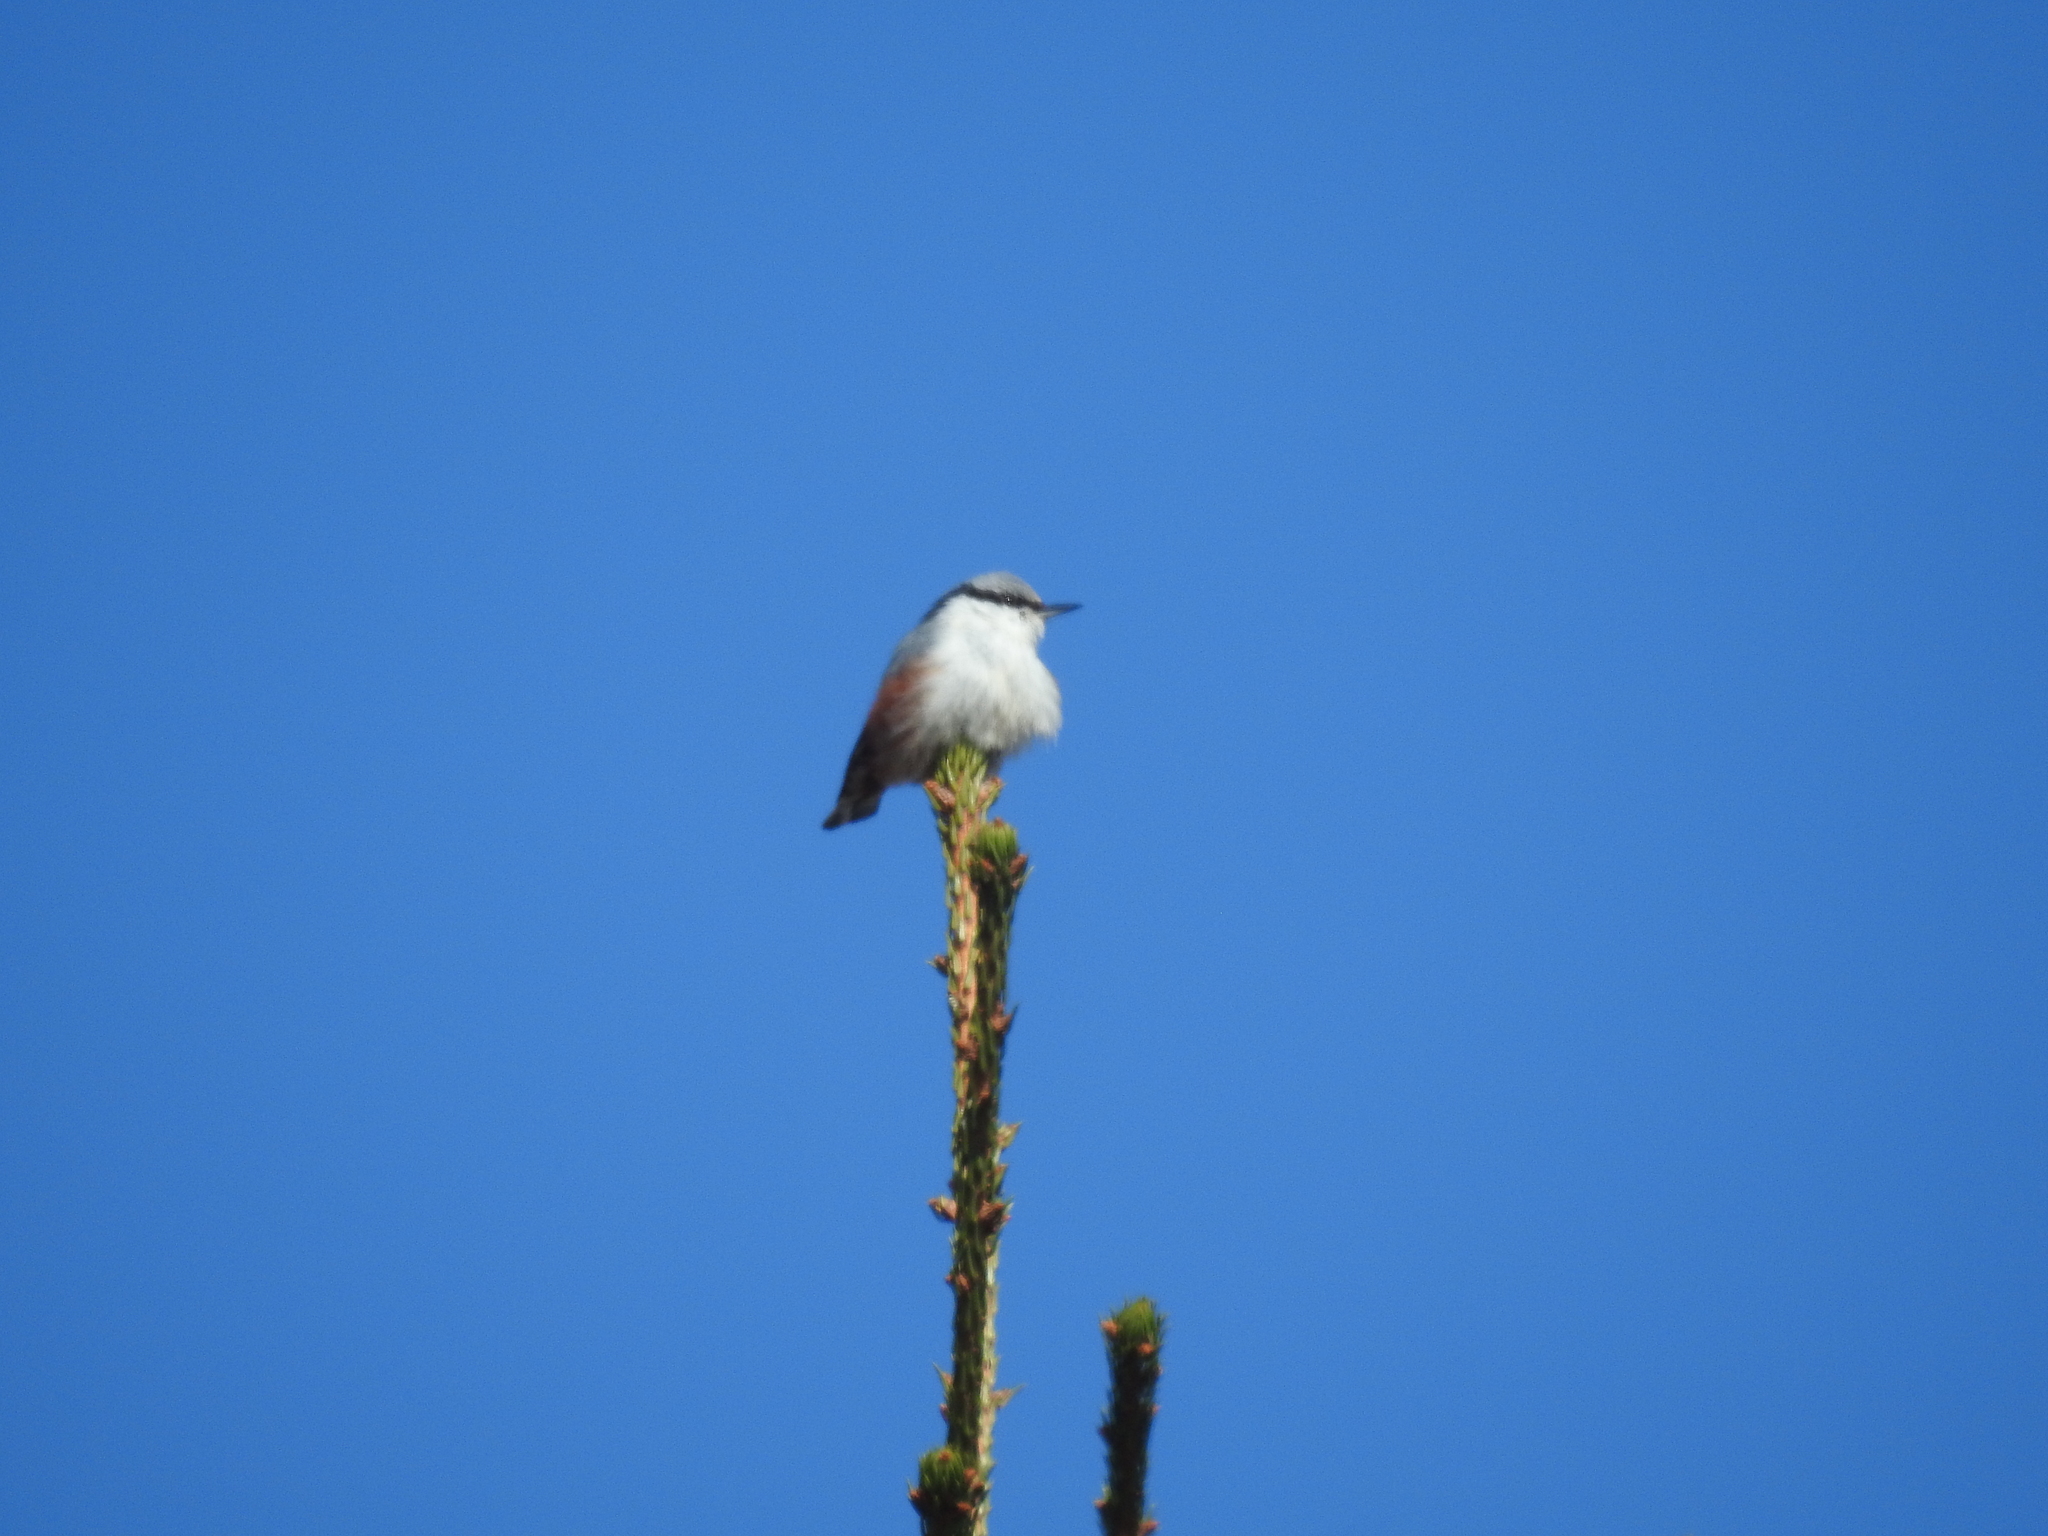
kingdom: Animalia
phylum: Chordata
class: Aves
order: Passeriformes
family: Sittidae
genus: Sitta
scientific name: Sitta europaea
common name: Eurasian nuthatch
